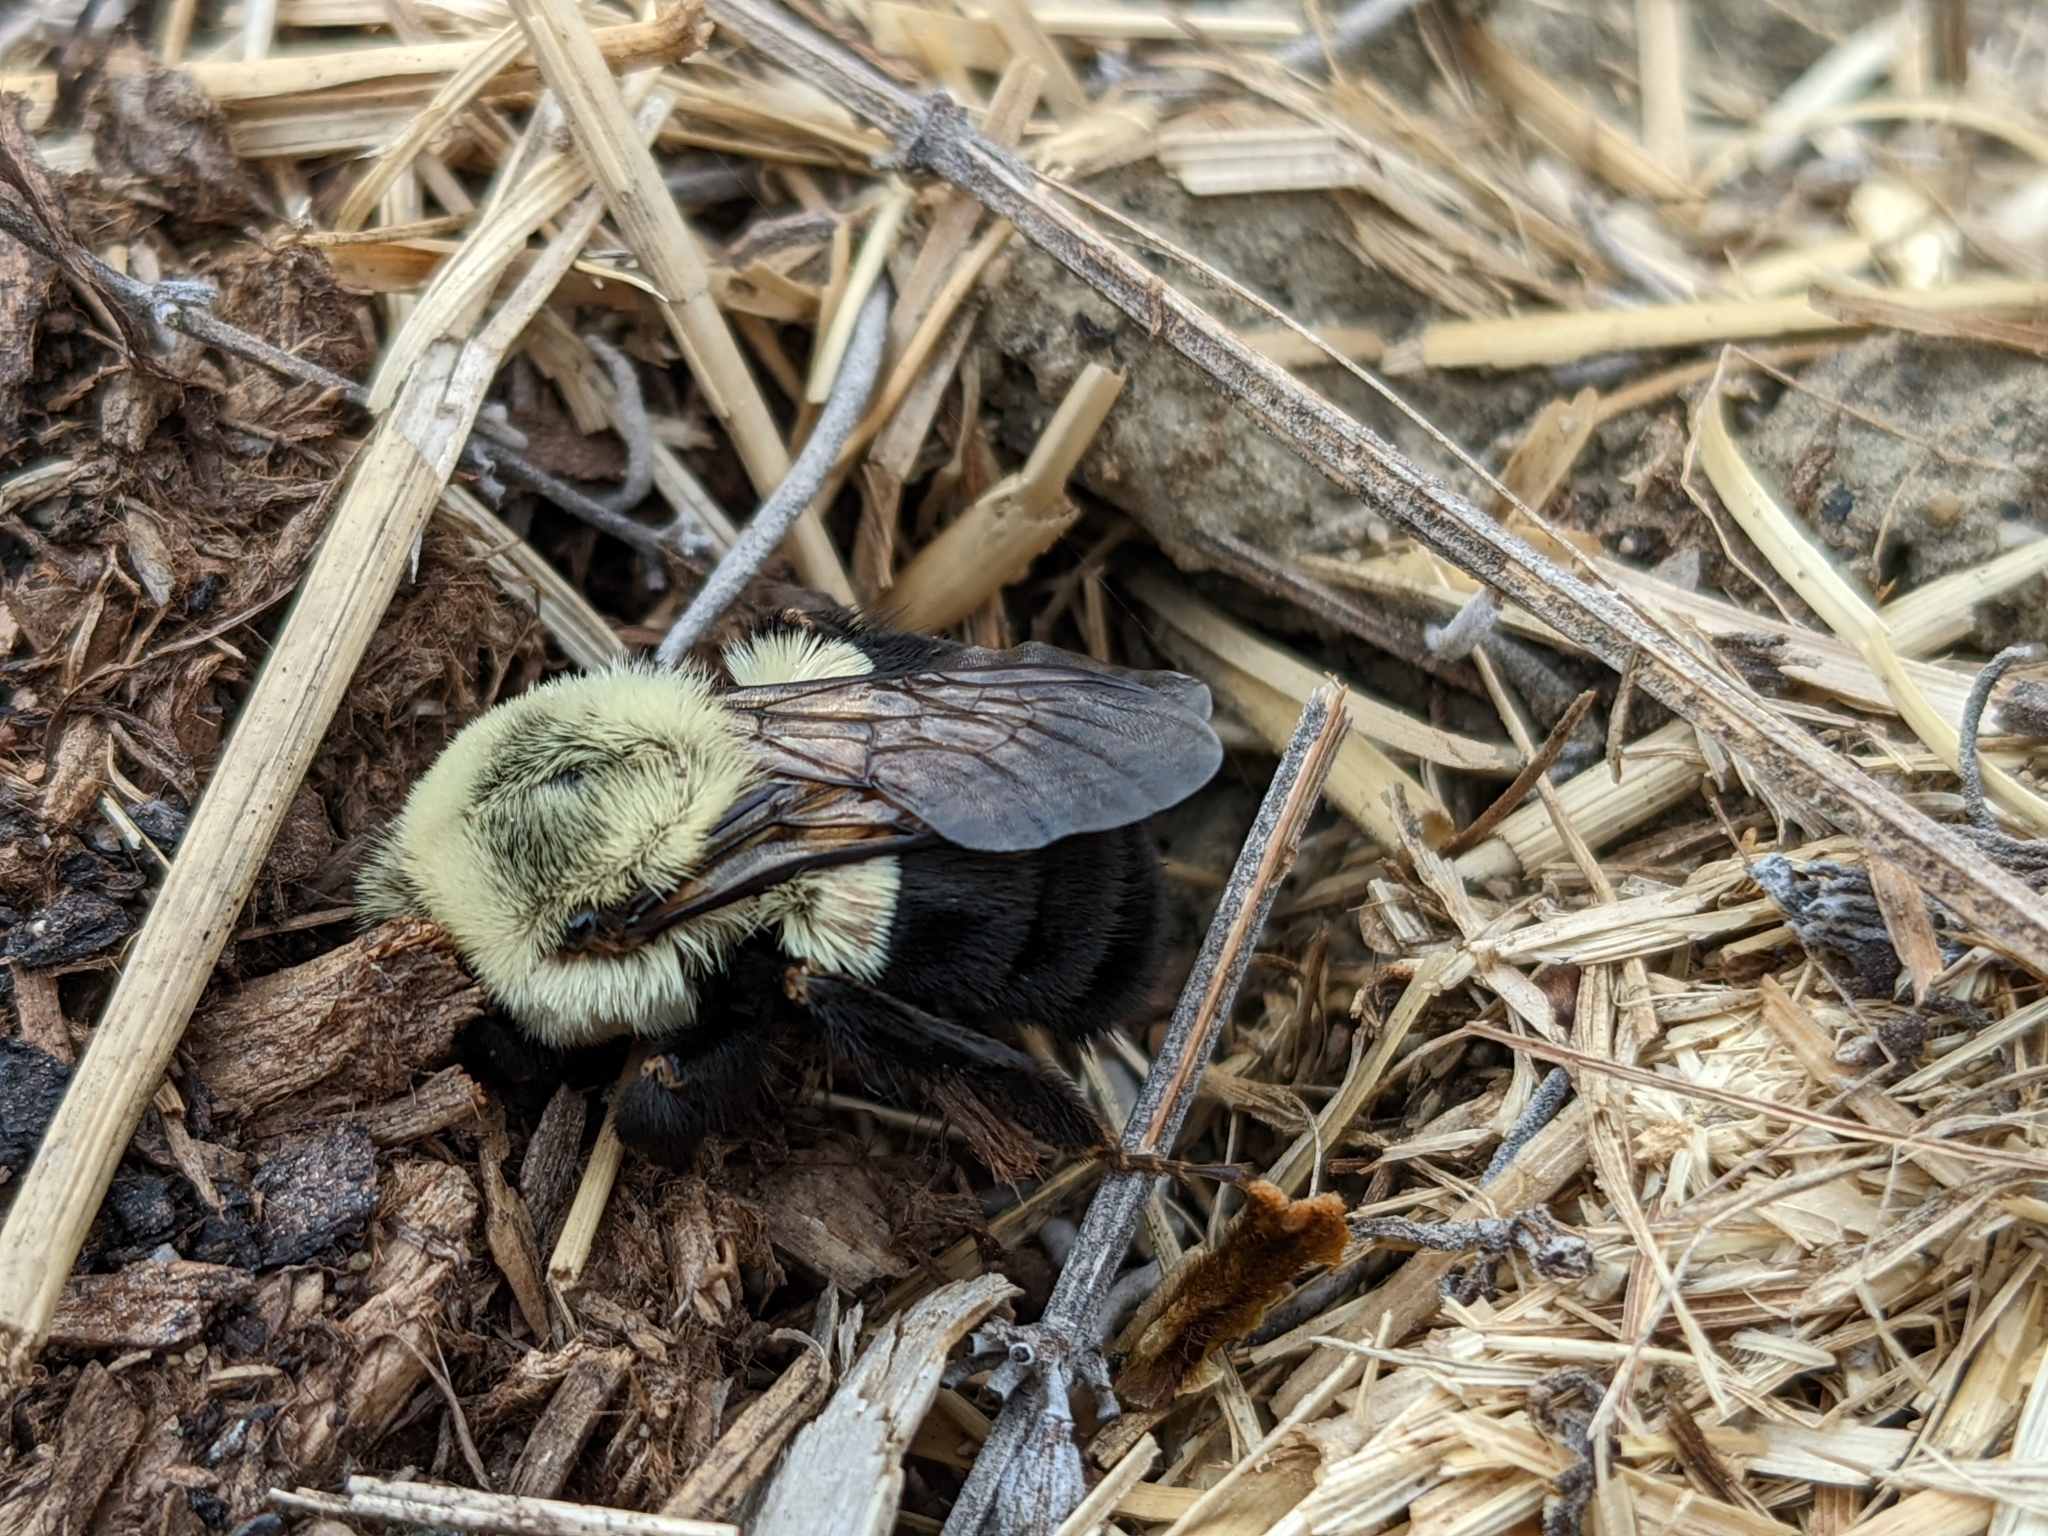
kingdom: Animalia
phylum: Arthropoda
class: Insecta
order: Hymenoptera
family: Apidae
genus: Bombus
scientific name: Bombus impatiens
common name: Common eastern bumble bee
